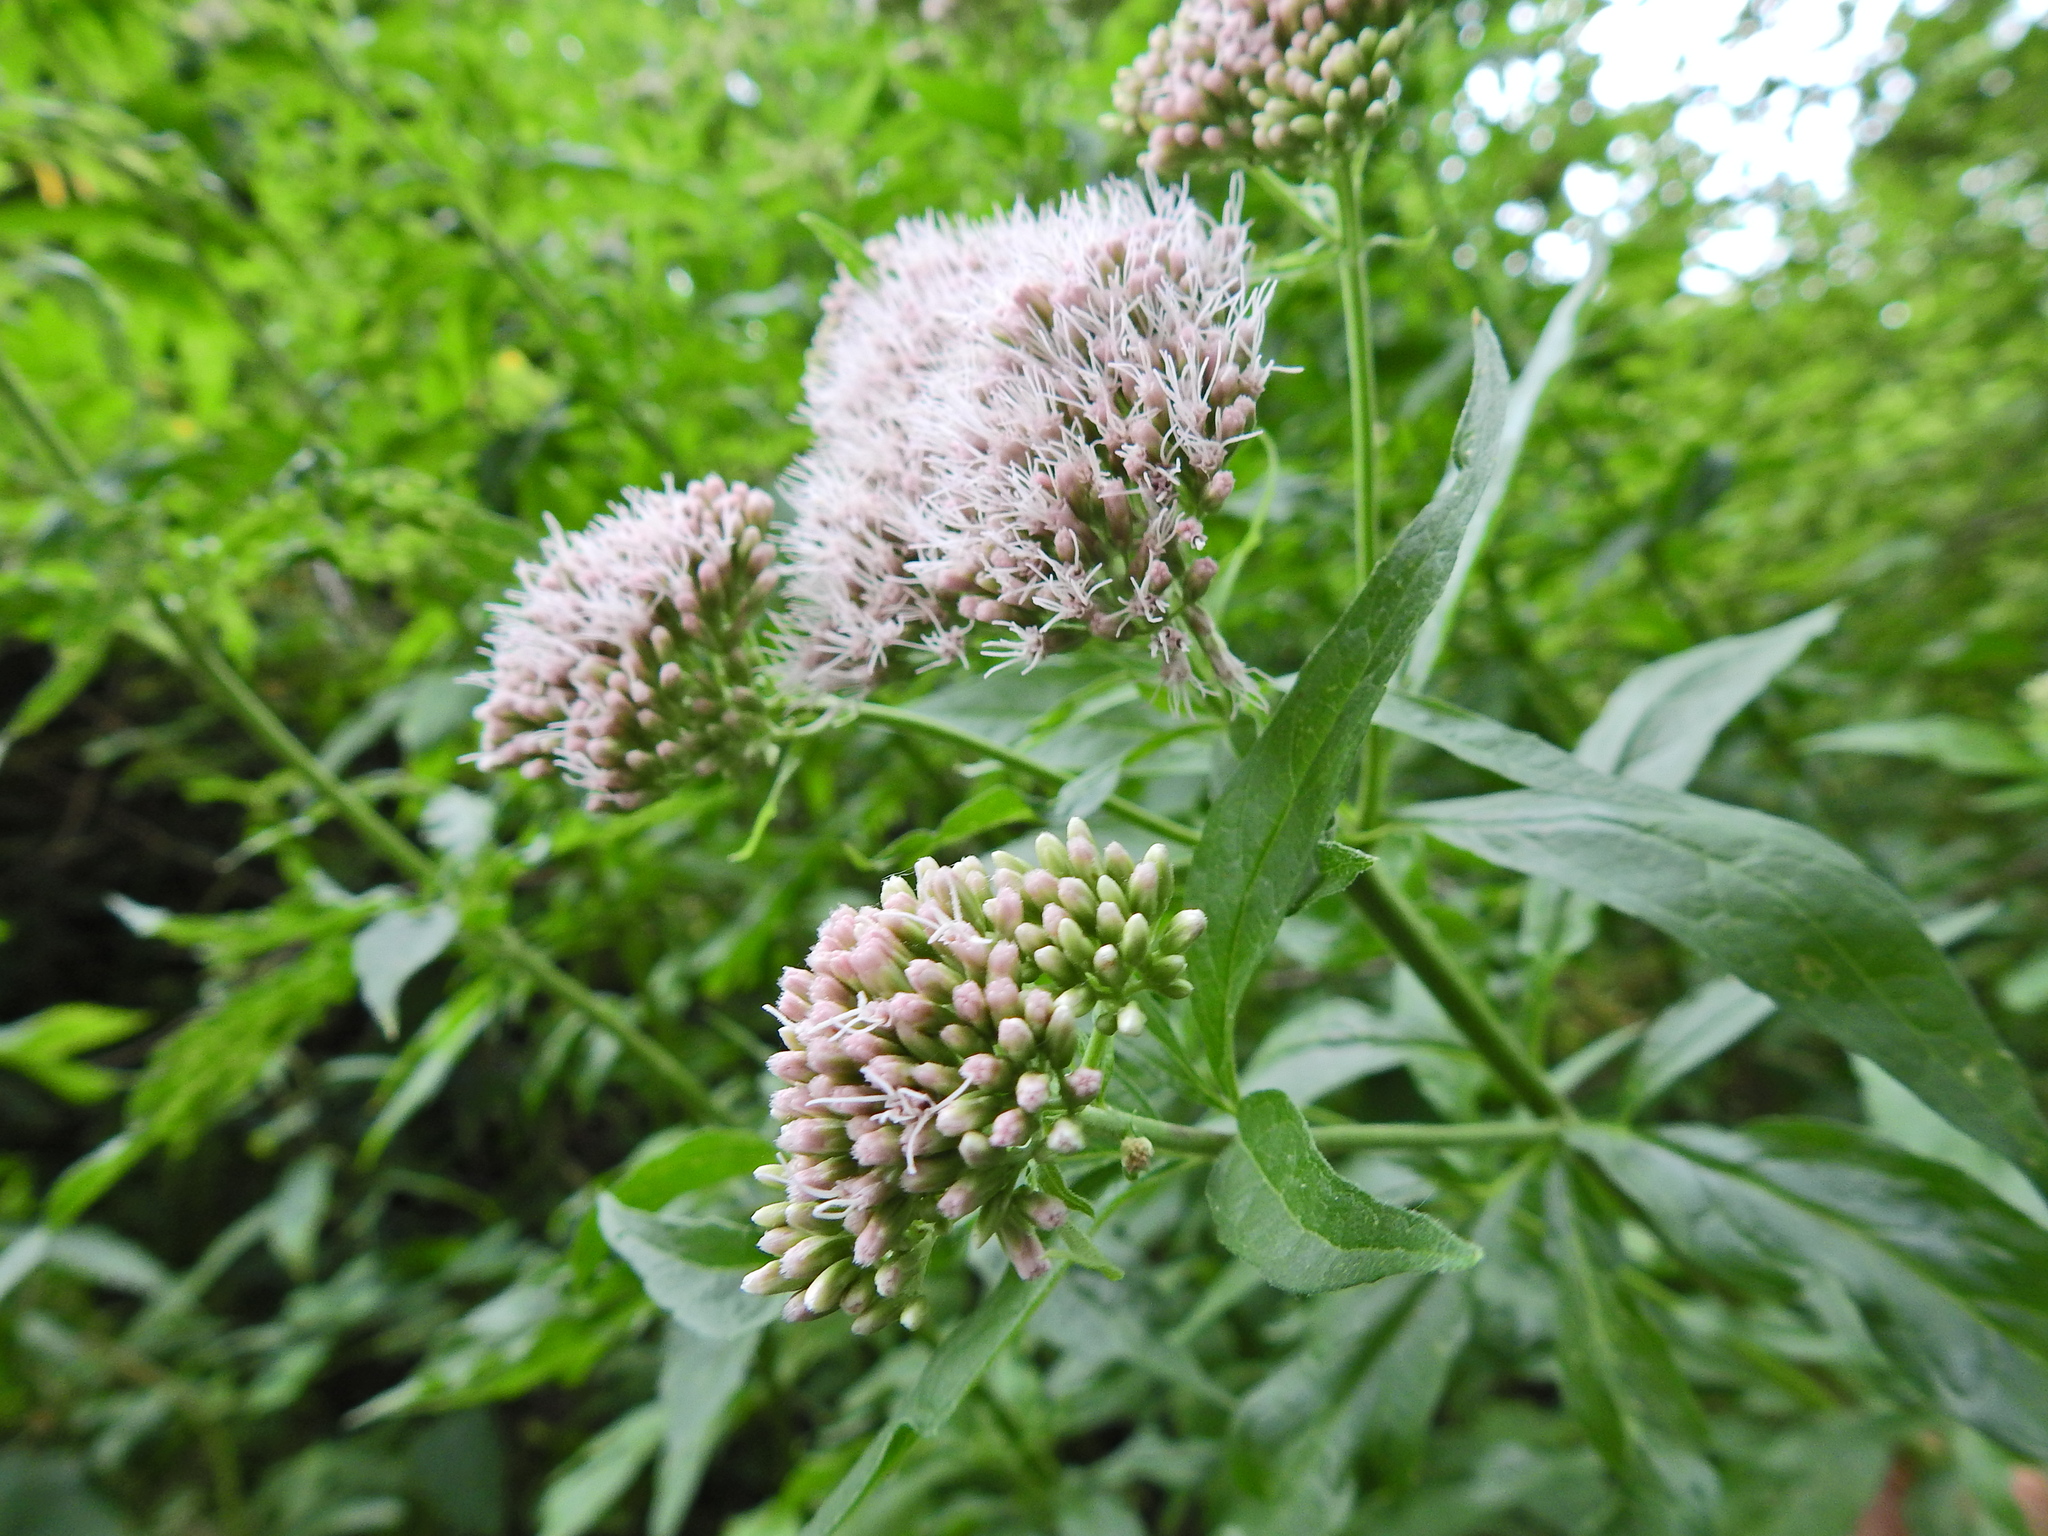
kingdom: Plantae
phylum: Tracheophyta
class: Magnoliopsida
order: Asterales
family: Asteraceae
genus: Eupatorium
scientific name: Eupatorium cannabinum
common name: Hemp-agrimony
